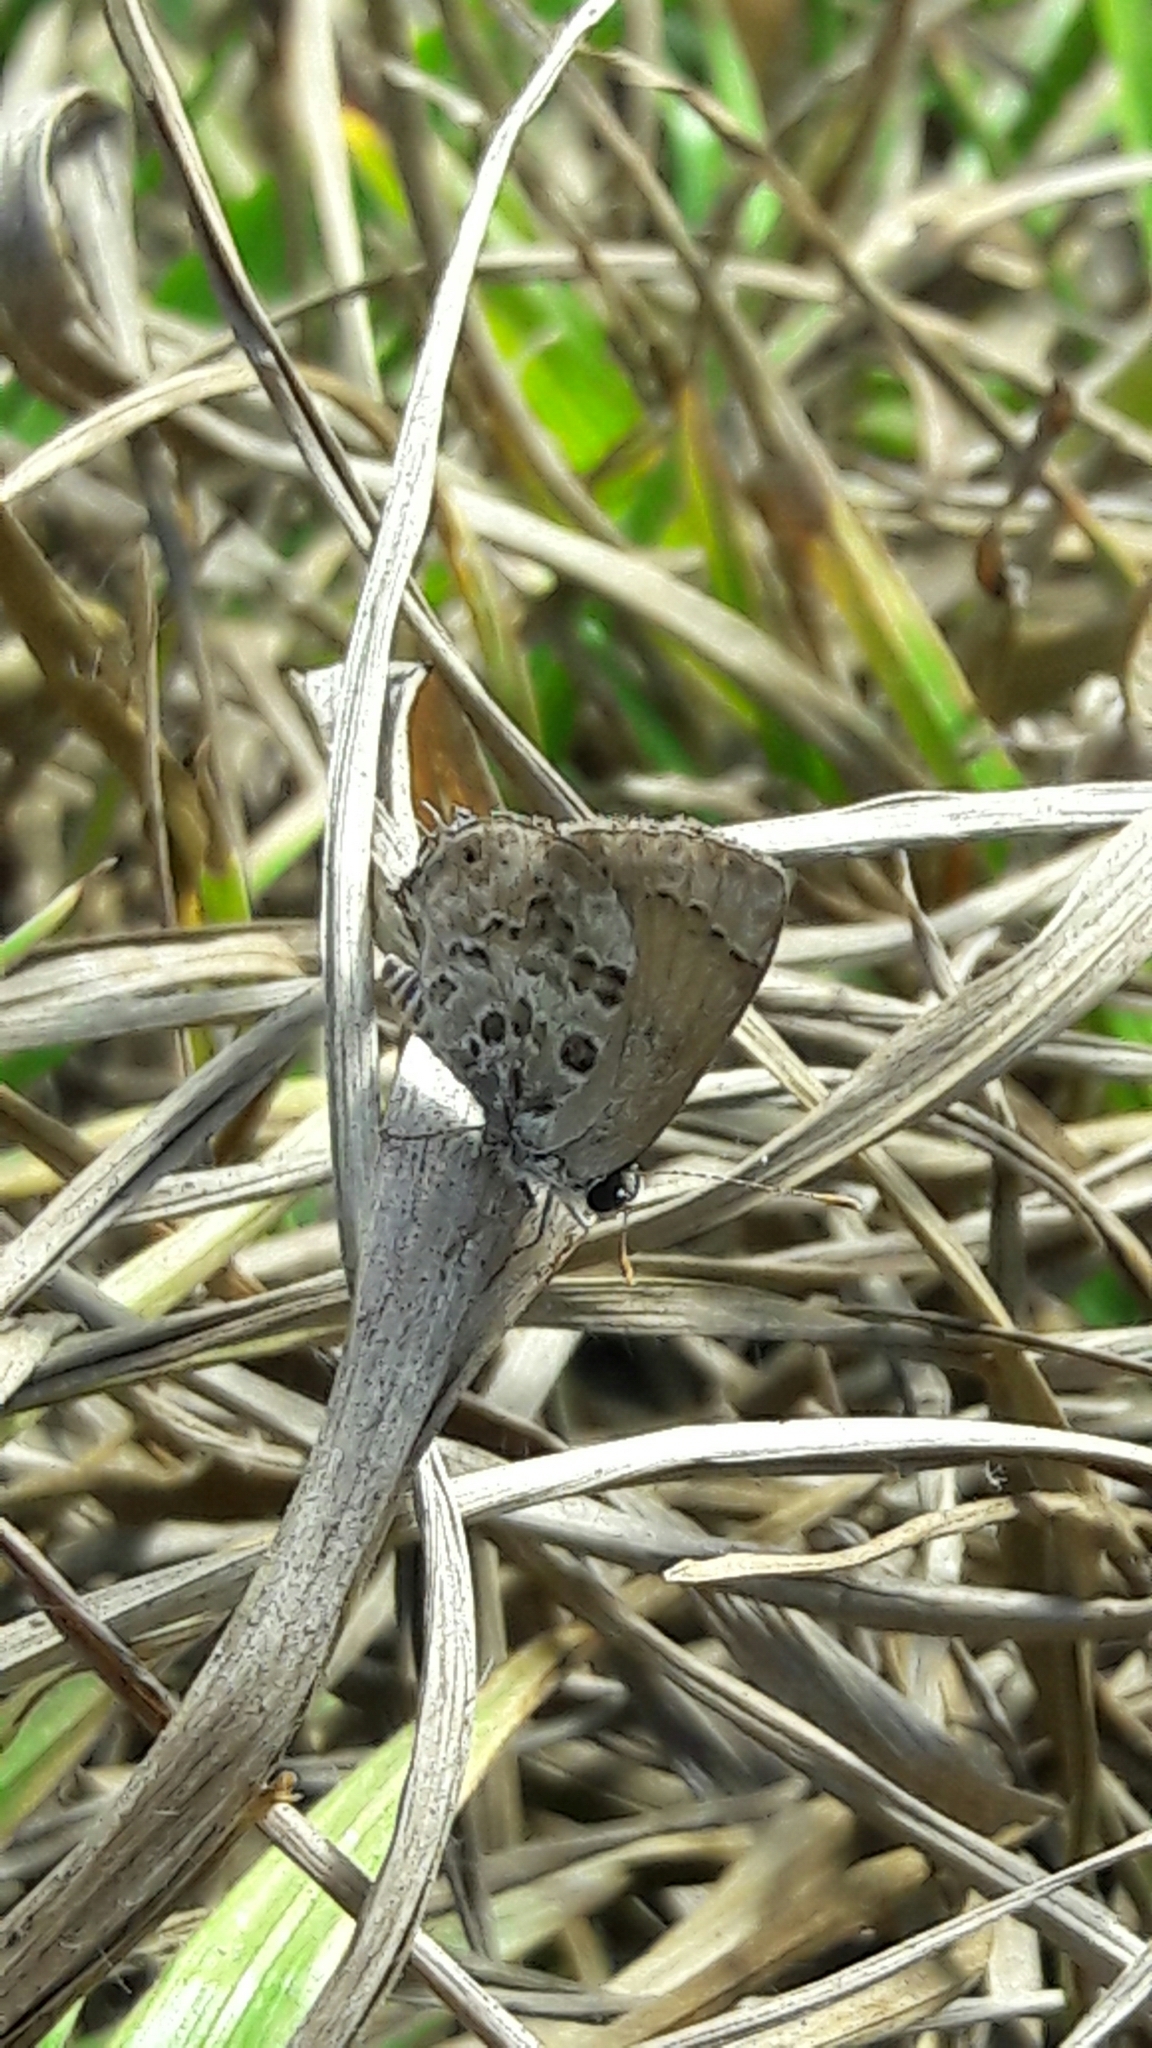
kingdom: Animalia
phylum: Arthropoda
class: Insecta
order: Lepidoptera
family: Lycaenidae
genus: Strymon
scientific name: Strymon astiocha
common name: Gray-spotted scrub-hairstreak
